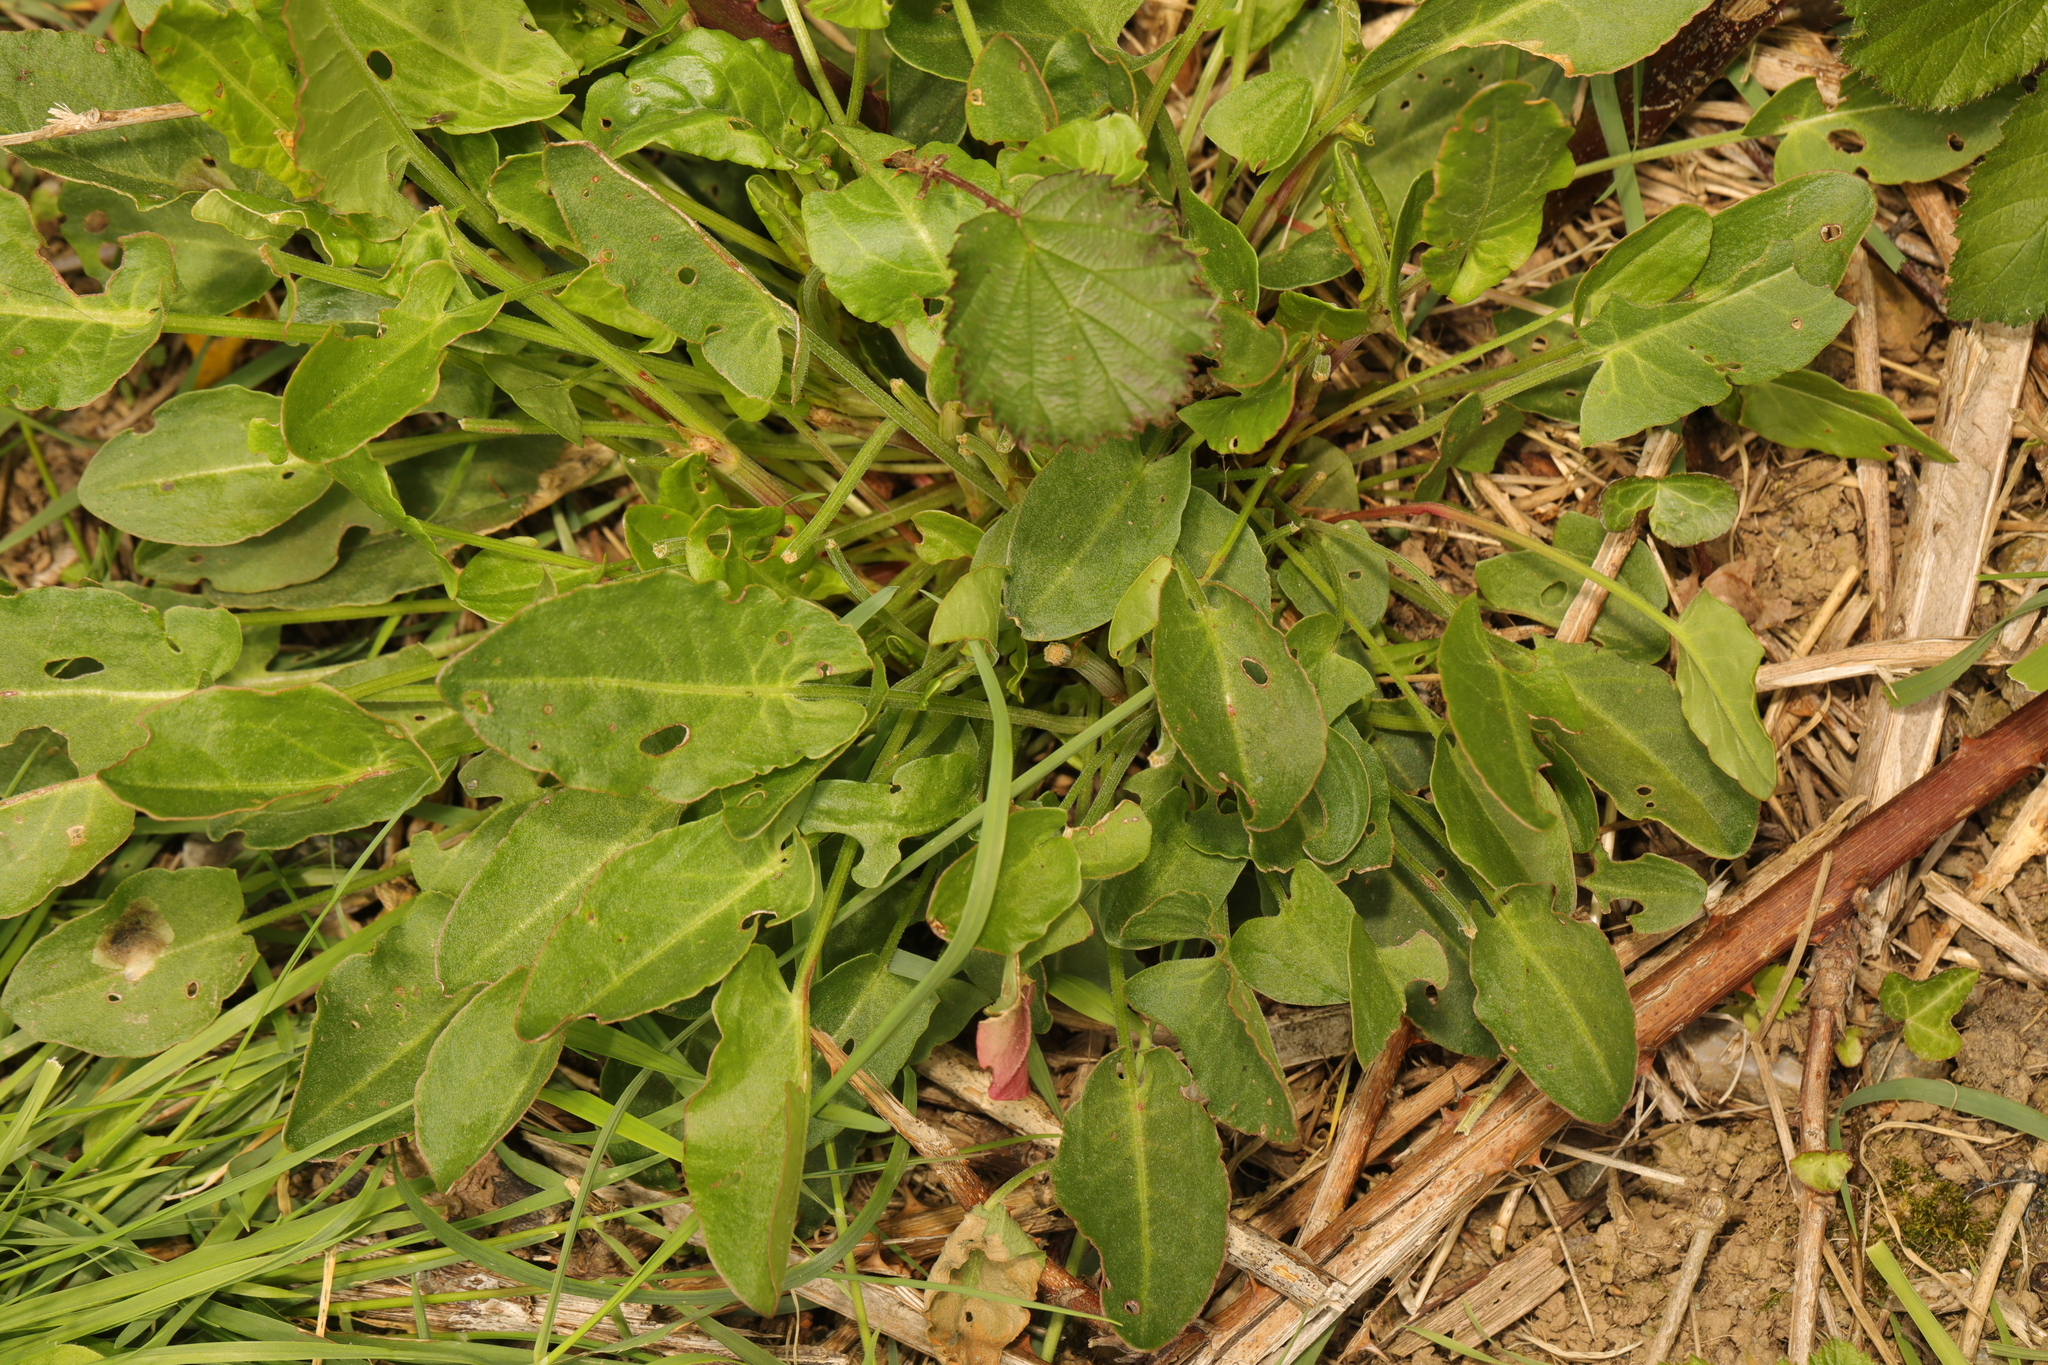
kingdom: Plantae
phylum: Tracheophyta
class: Magnoliopsida
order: Caryophyllales
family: Polygonaceae
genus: Rumex
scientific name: Rumex acetosa
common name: Garden sorrel
